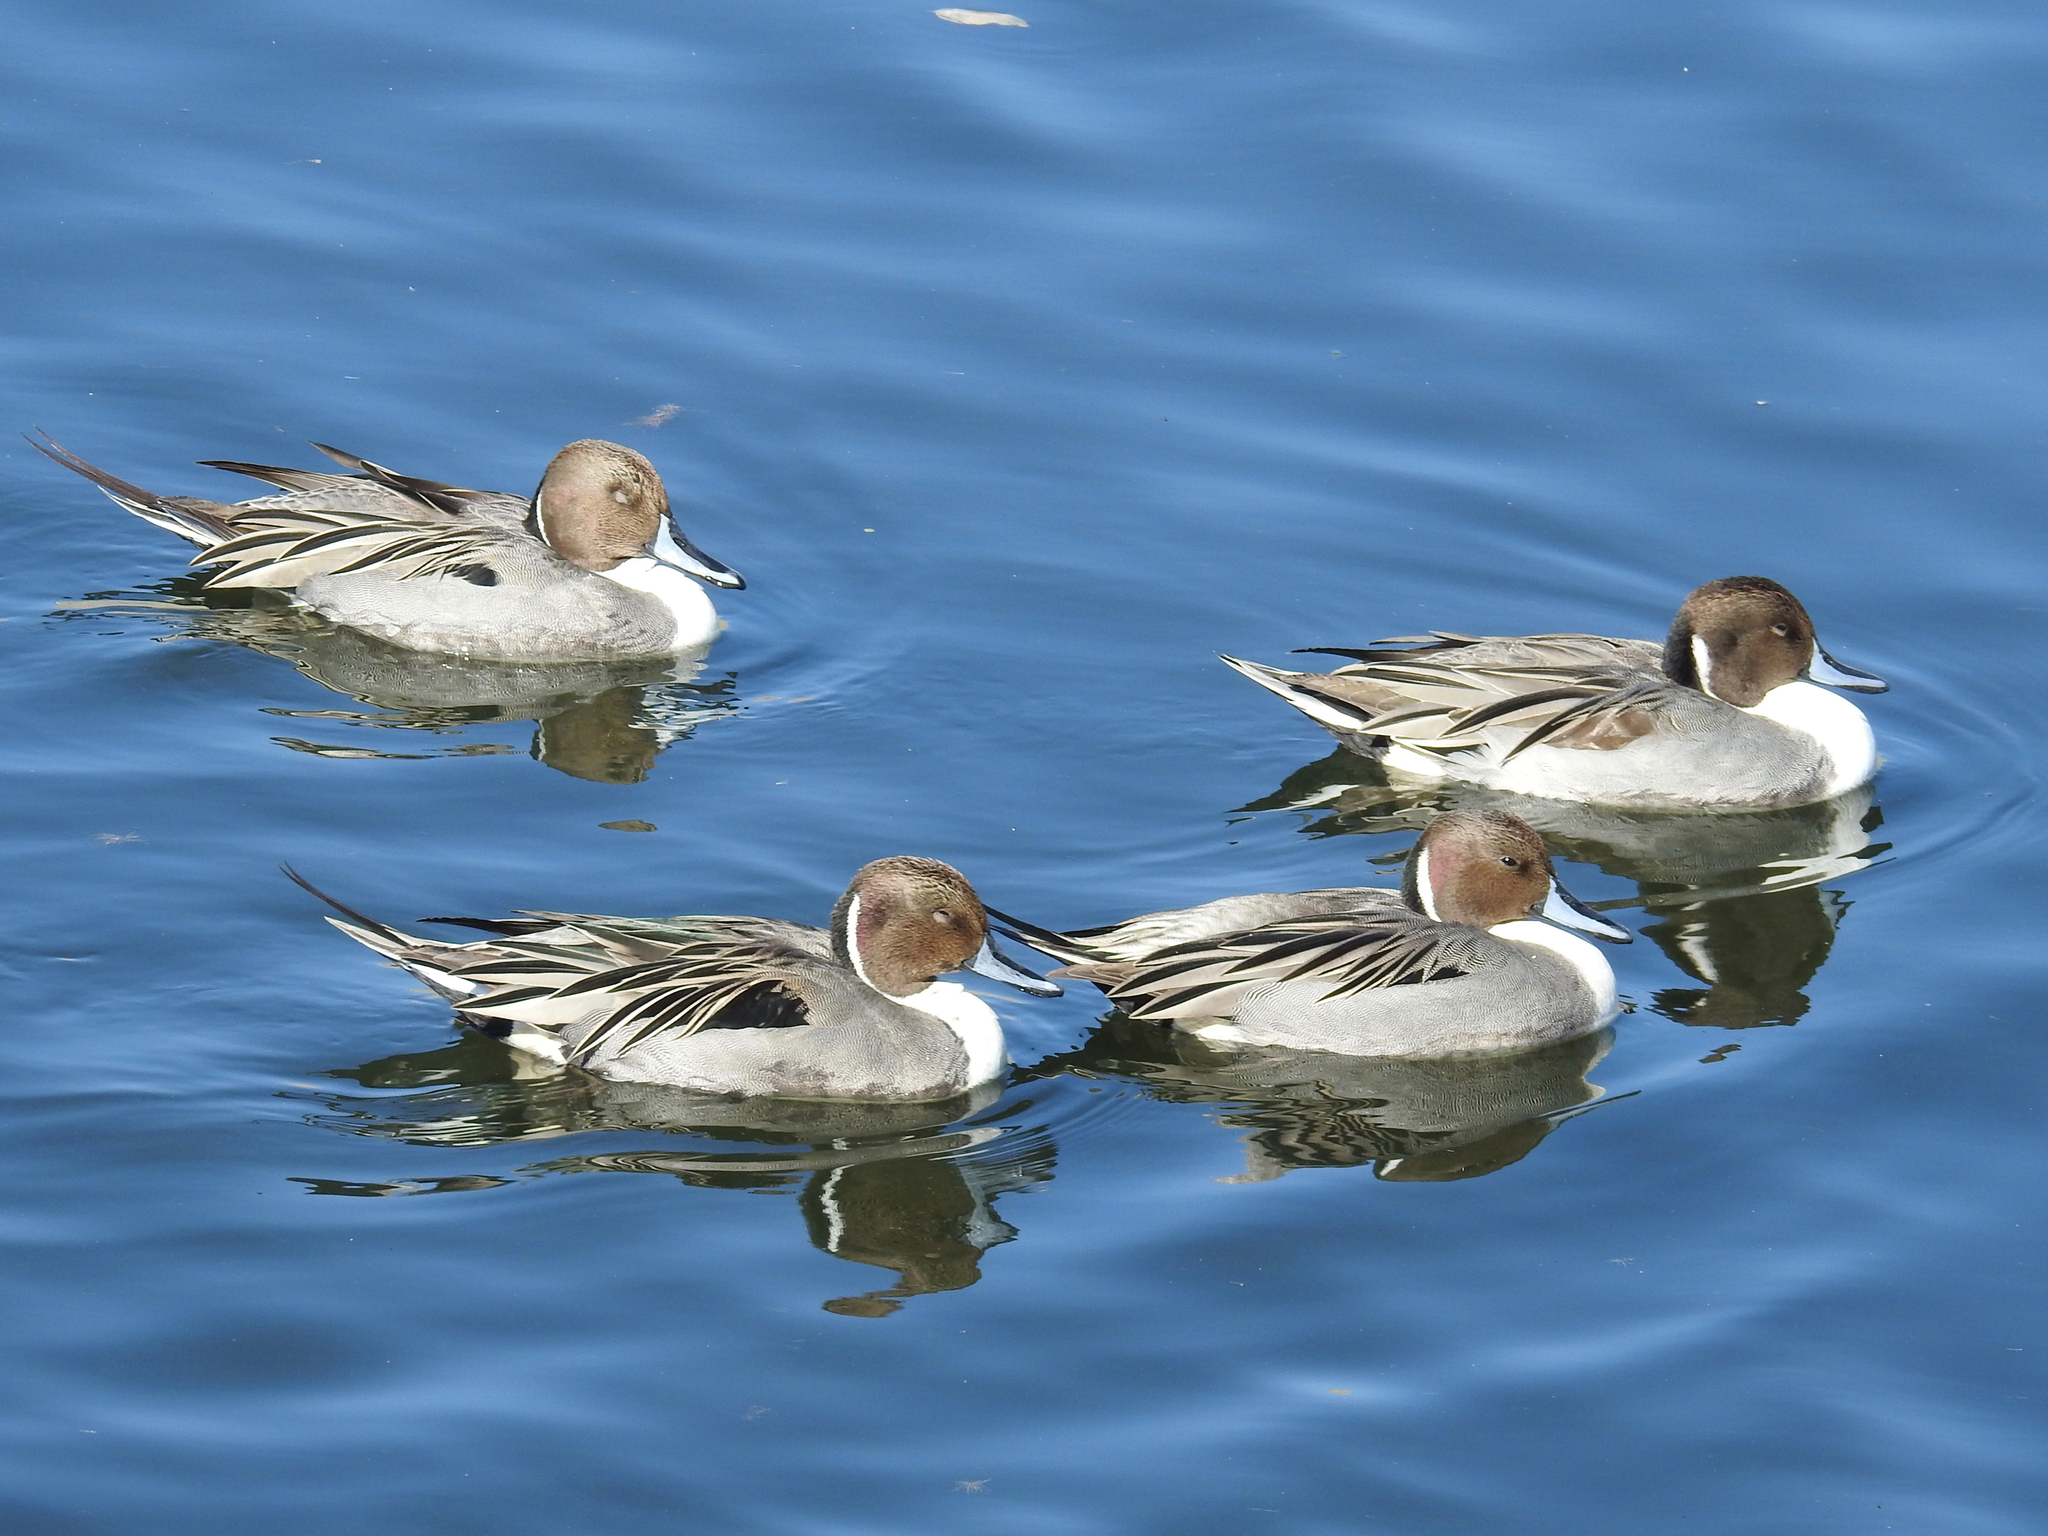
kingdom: Animalia
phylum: Chordata
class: Aves
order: Anseriformes
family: Anatidae
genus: Anas
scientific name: Anas acuta
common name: Northern pintail
